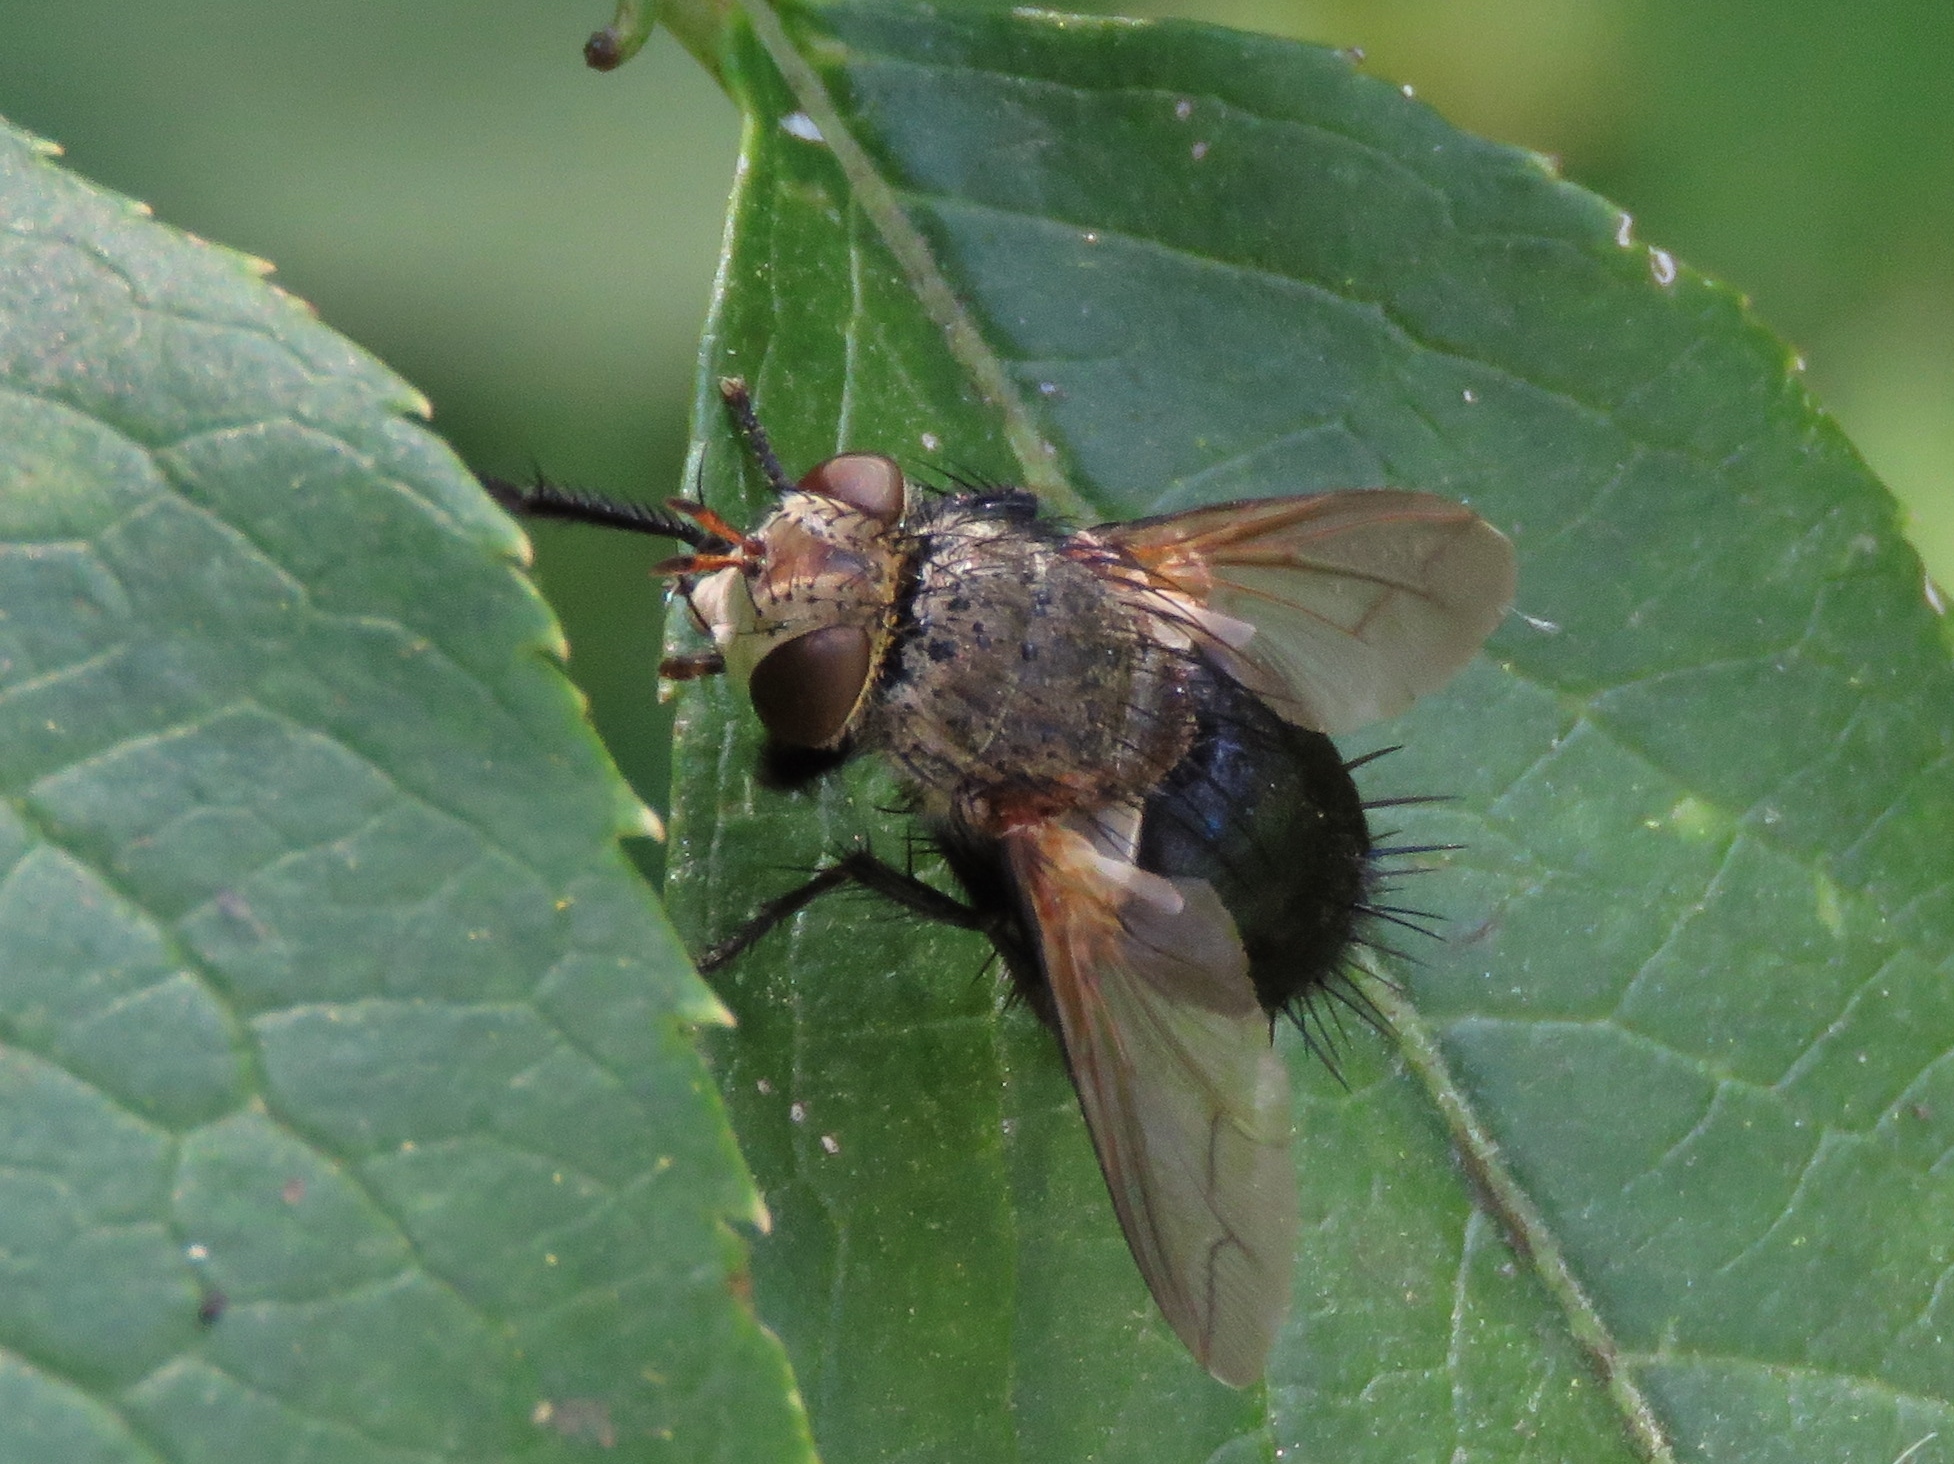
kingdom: Animalia
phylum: Arthropoda
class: Insecta
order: Diptera
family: Tachinidae
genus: Archytas
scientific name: Archytas apicifer
